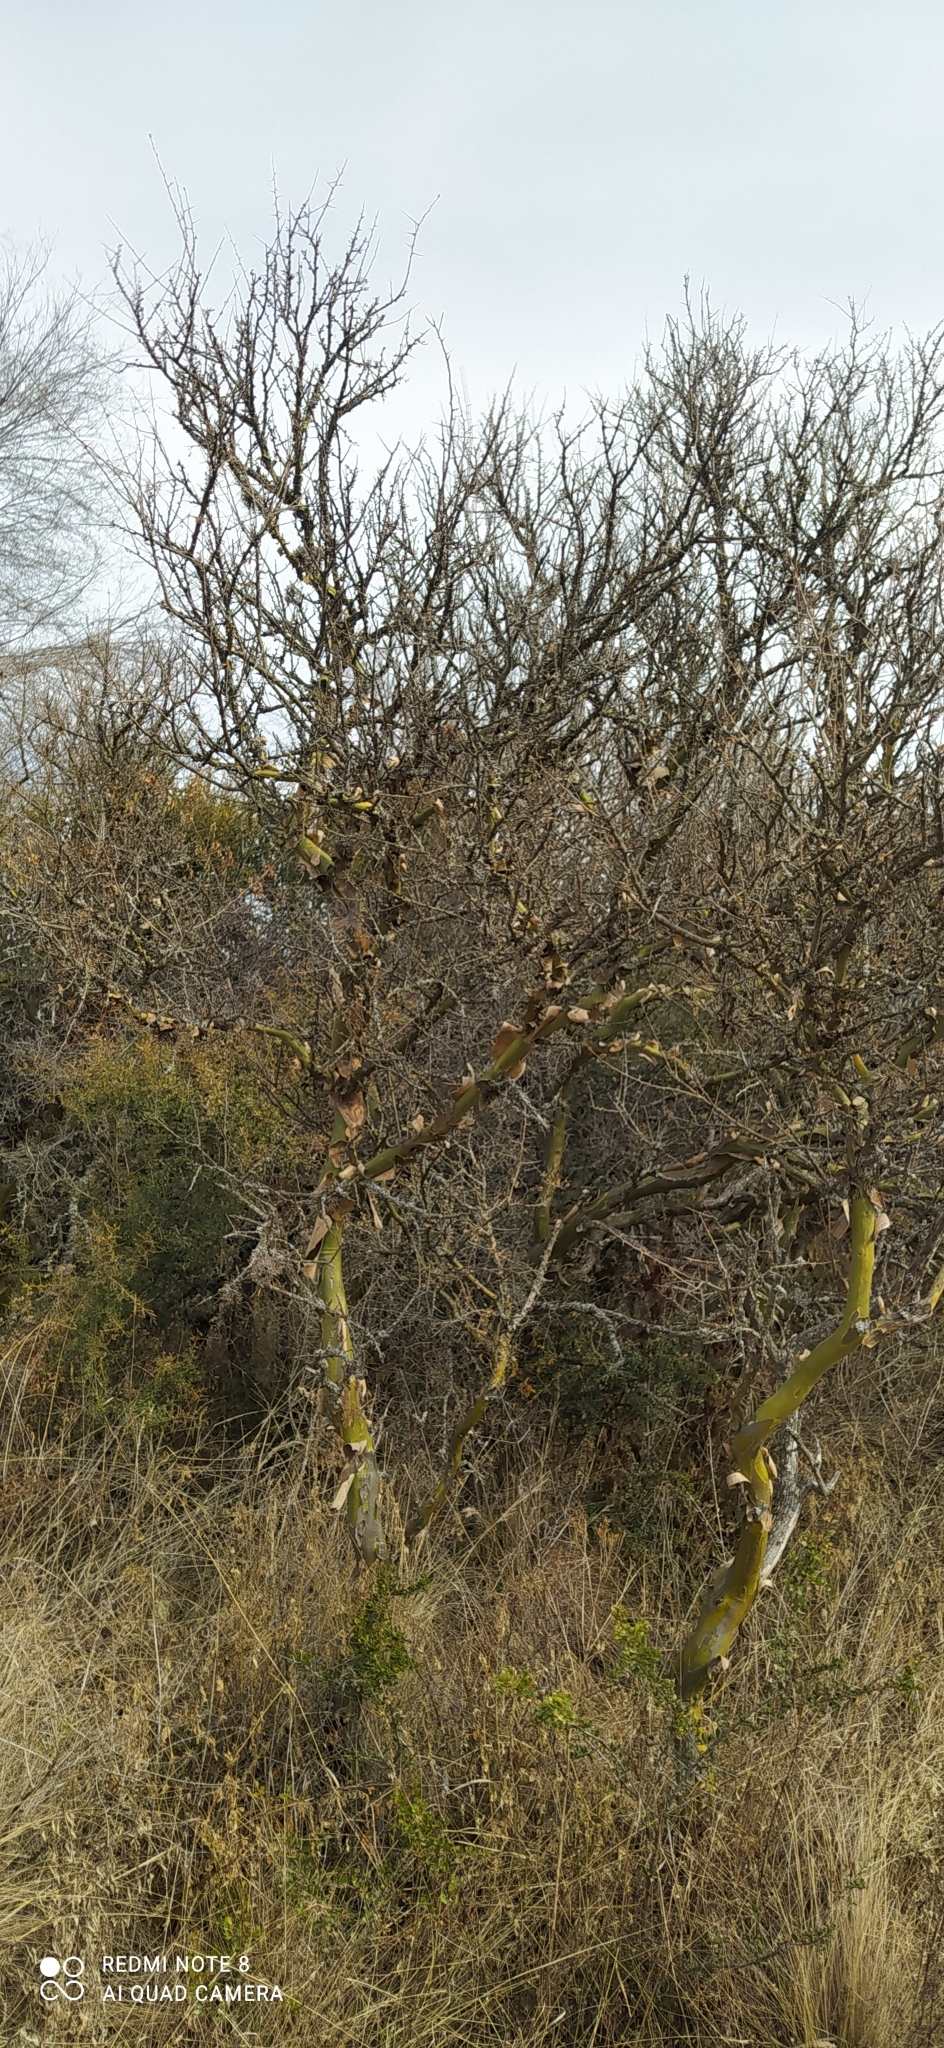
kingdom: Plantae
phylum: Tracheophyta
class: Magnoliopsida
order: Fabales
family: Fabaceae
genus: Geoffroea
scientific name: Geoffroea decorticans
